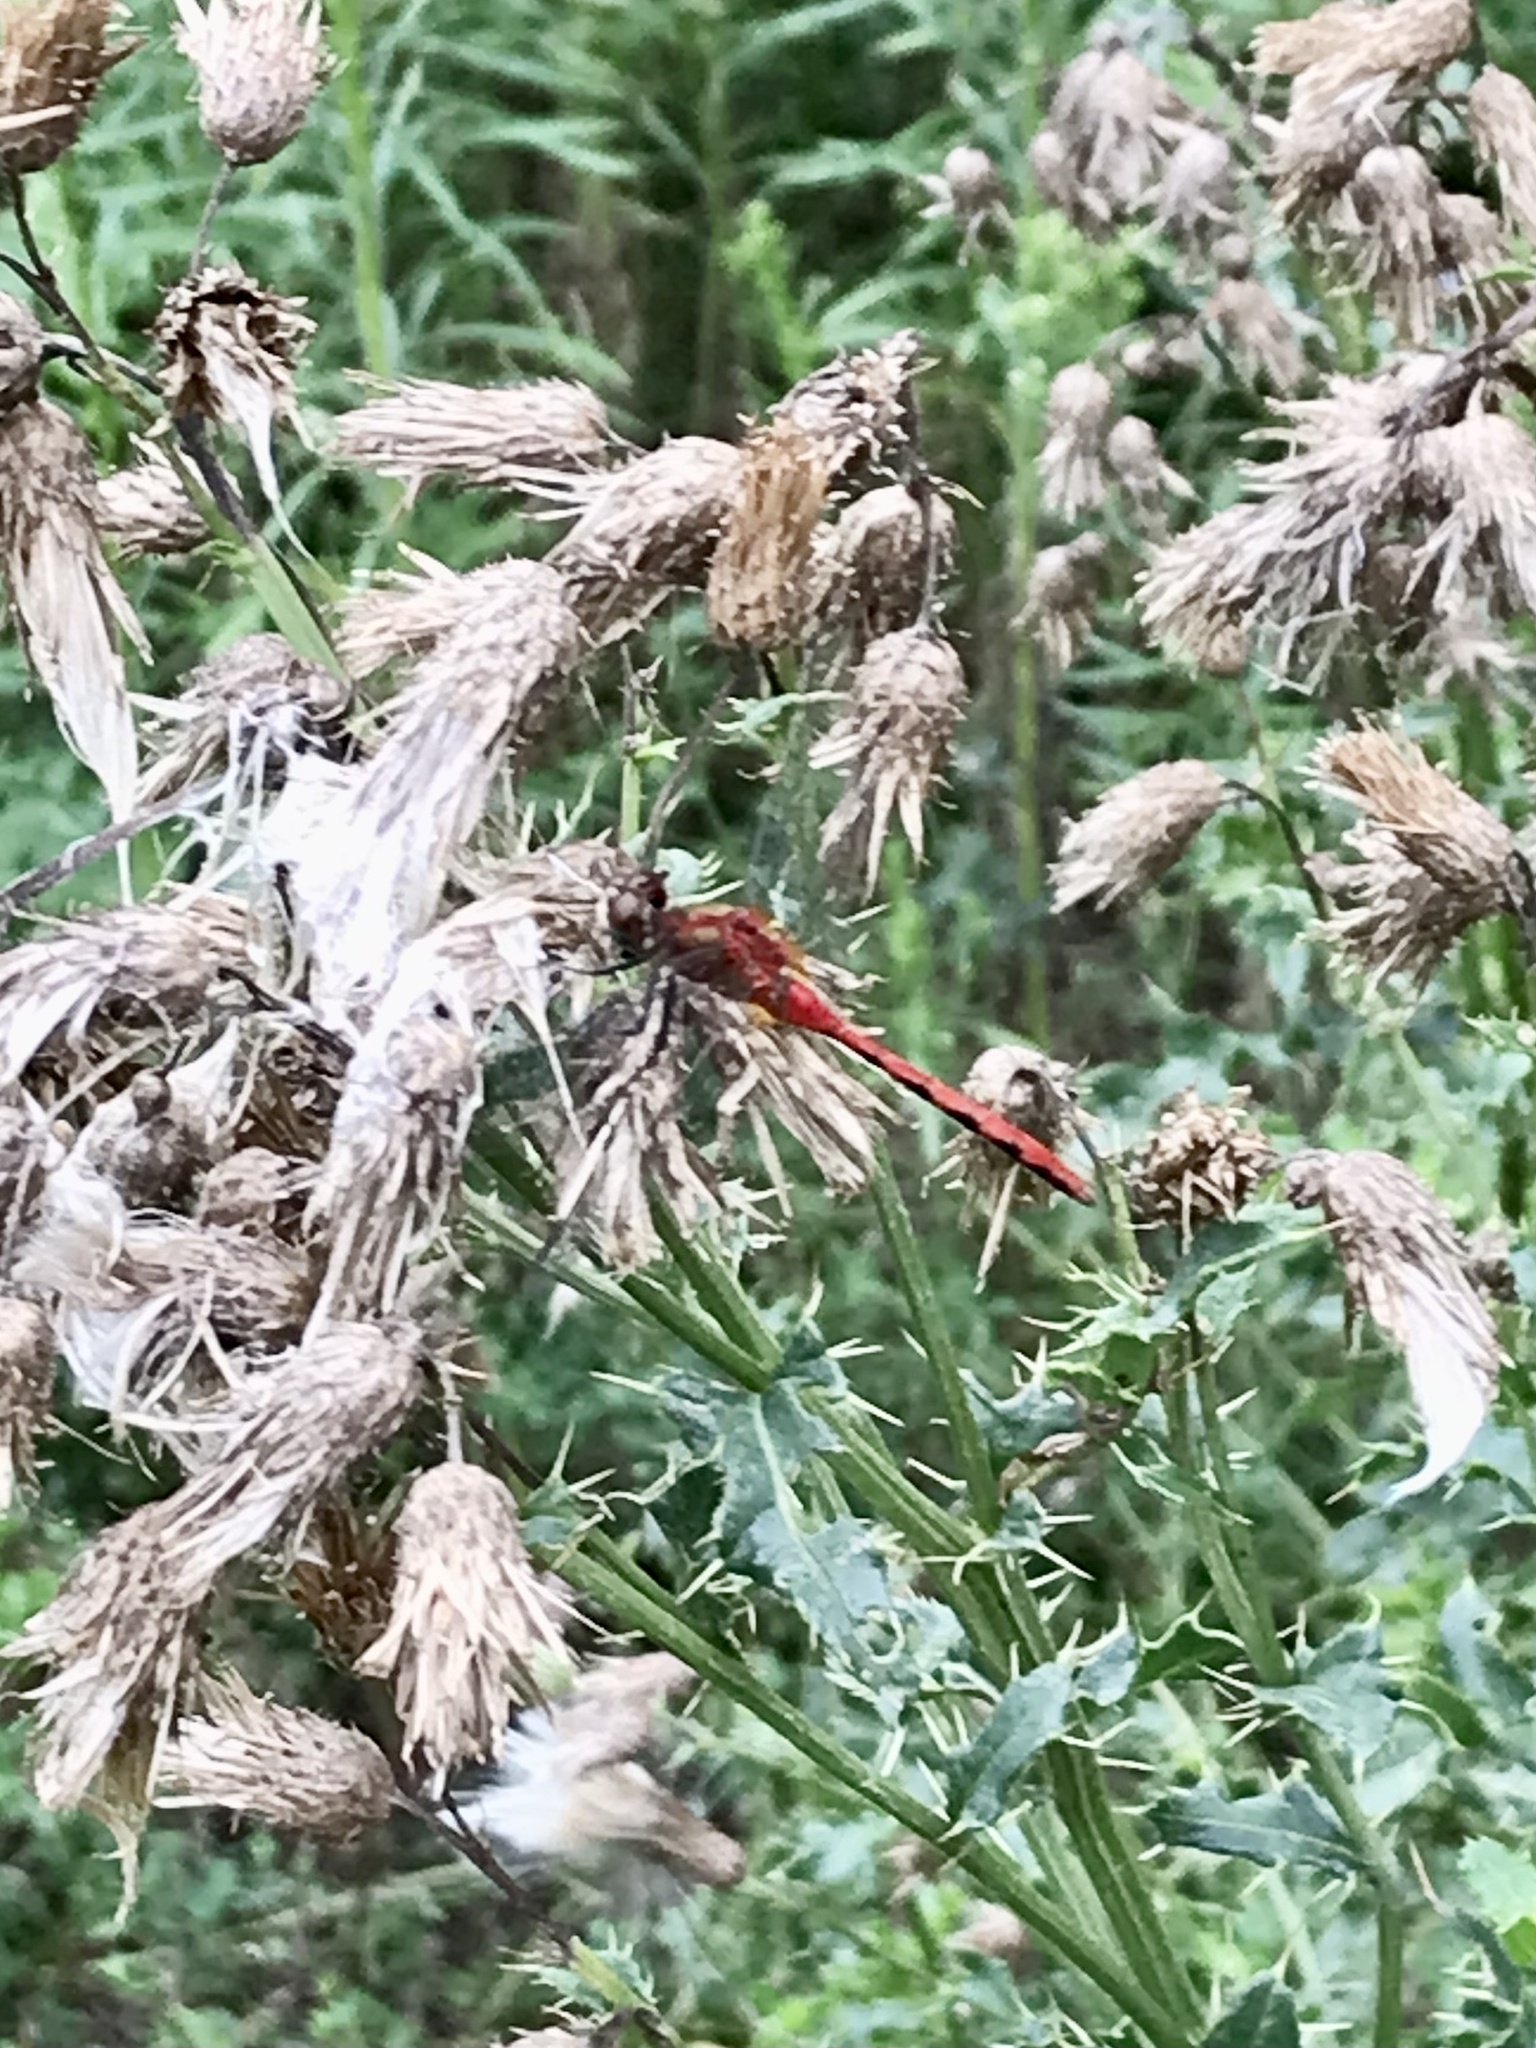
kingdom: Animalia
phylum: Arthropoda
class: Insecta
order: Odonata
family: Libellulidae
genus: Sympetrum
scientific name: Sympetrum obtrusum
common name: White-faced meadowhawk
